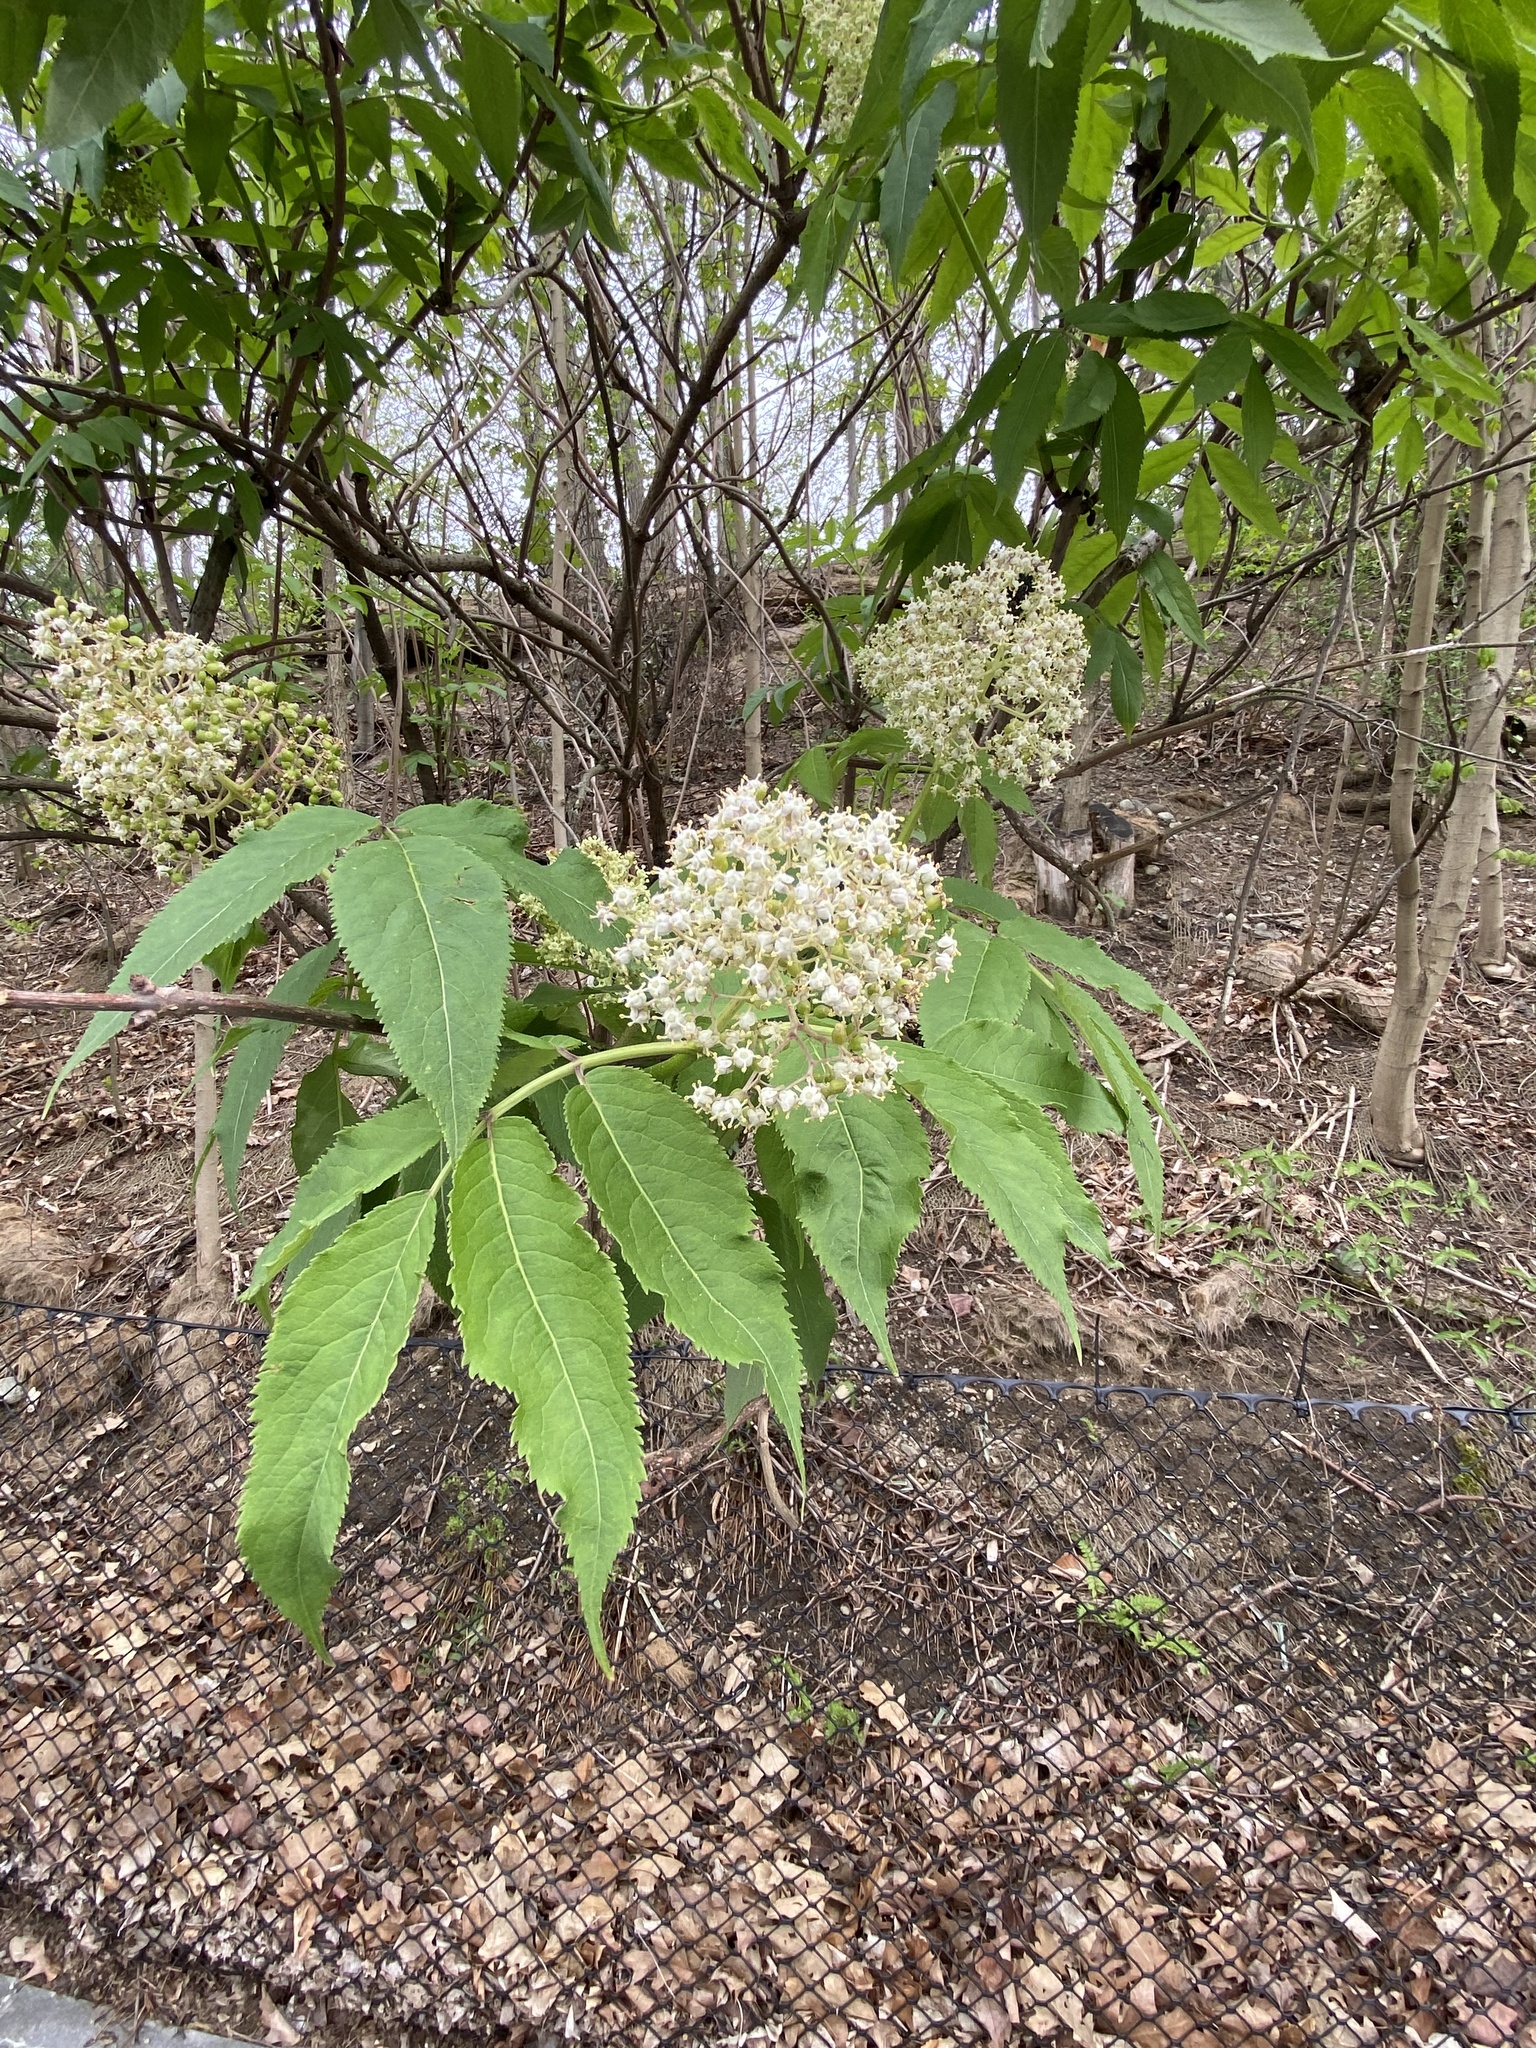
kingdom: Plantae
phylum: Tracheophyta
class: Magnoliopsida
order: Dipsacales
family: Viburnaceae
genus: Sambucus
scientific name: Sambucus racemosa
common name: Red-berried elder
